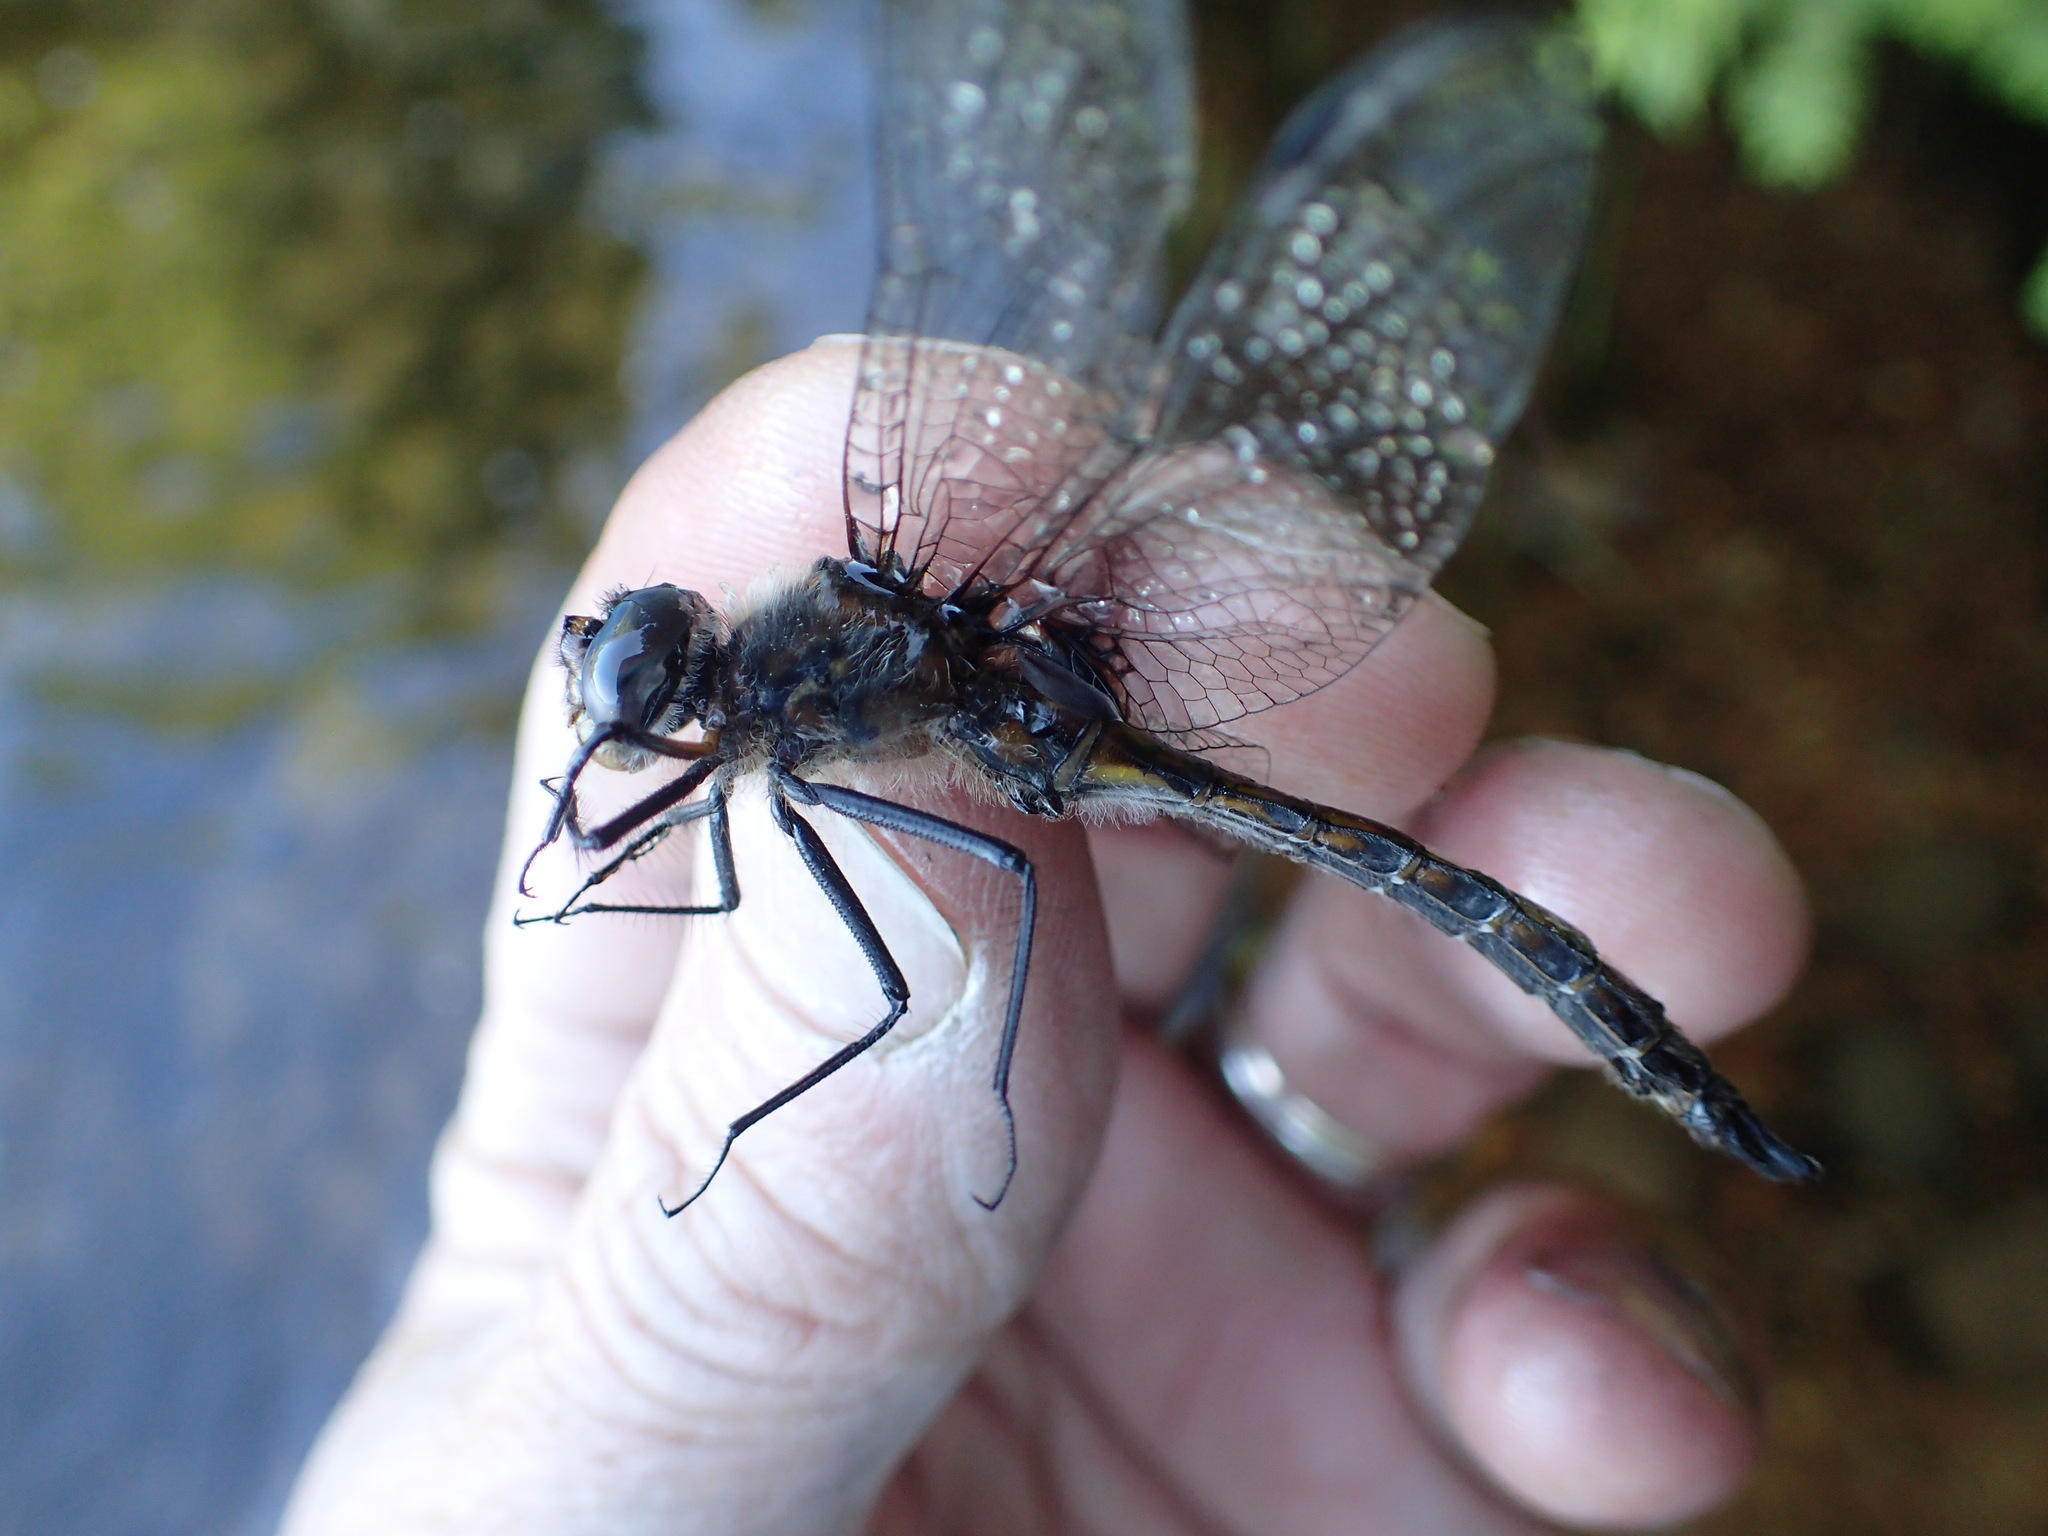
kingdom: Animalia
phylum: Arthropoda
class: Insecta
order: Odonata
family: Corduliidae
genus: Epitheca
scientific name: Epitheca spinigera
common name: Spiny baskettail
